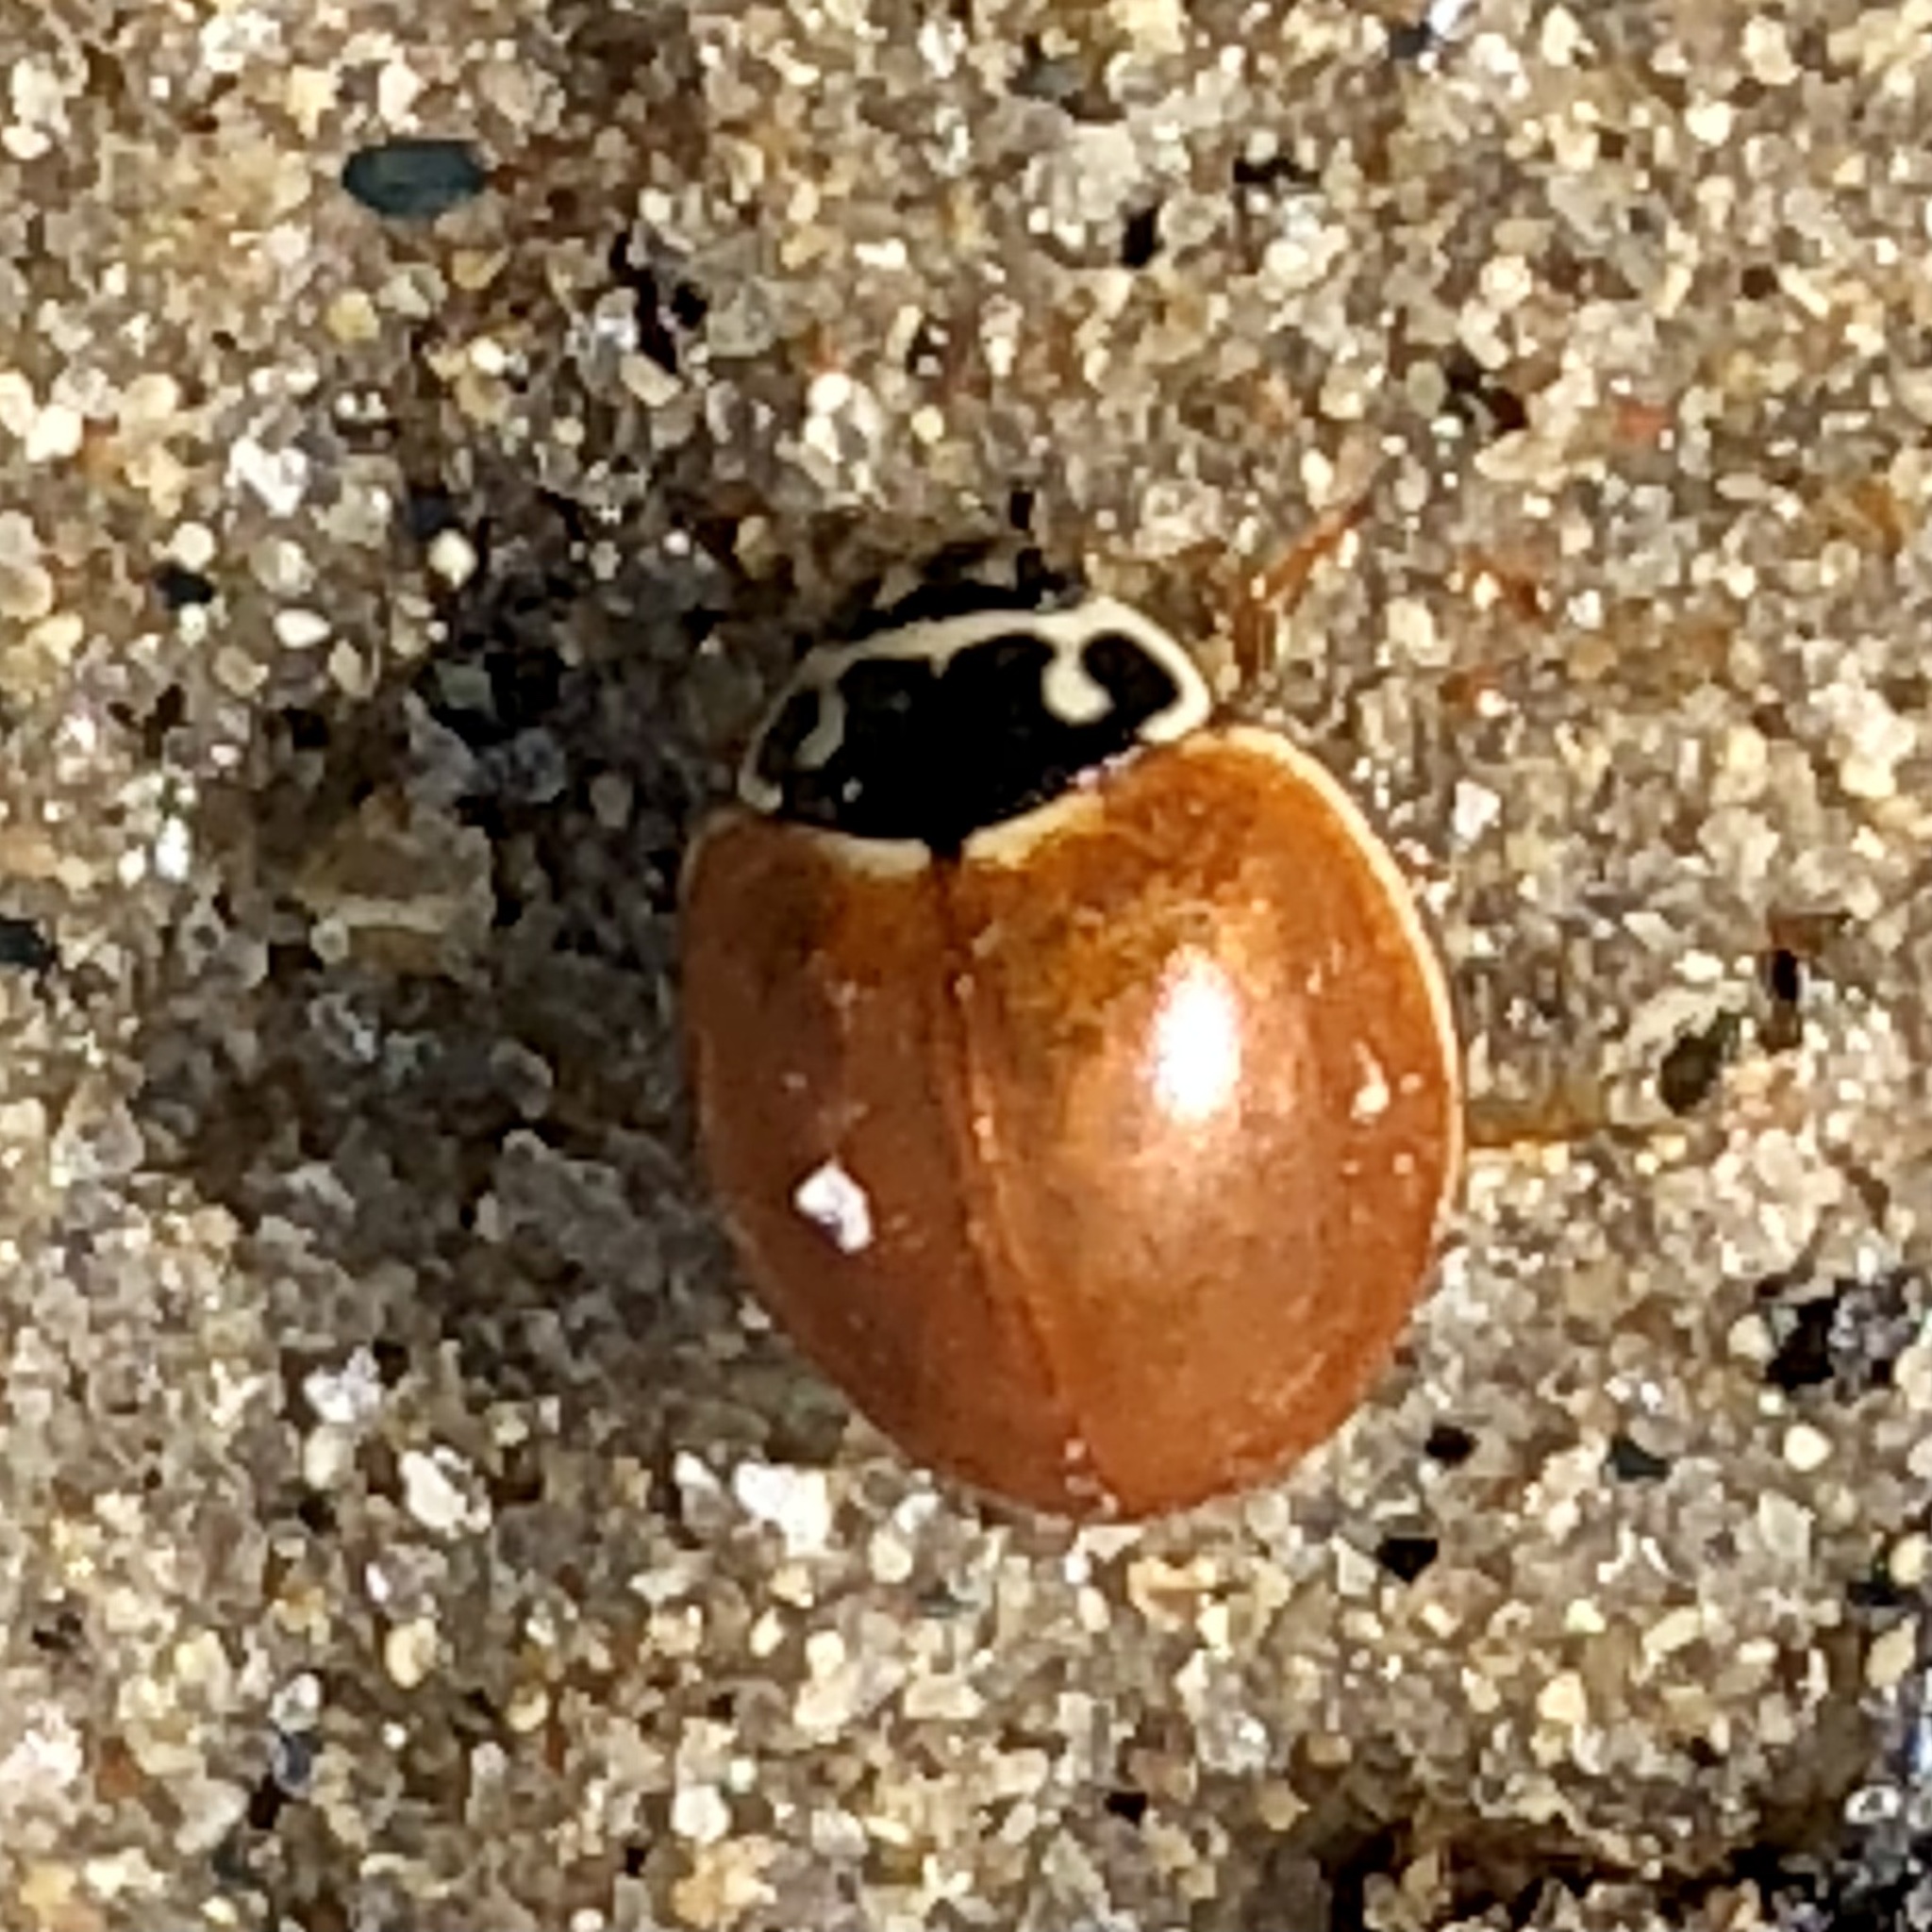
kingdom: Animalia
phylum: Arthropoda
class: Insecta
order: Coleoptera
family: Coccinellidae
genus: Cycloneda
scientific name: Cycloneda munda
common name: Polished lady beetle
